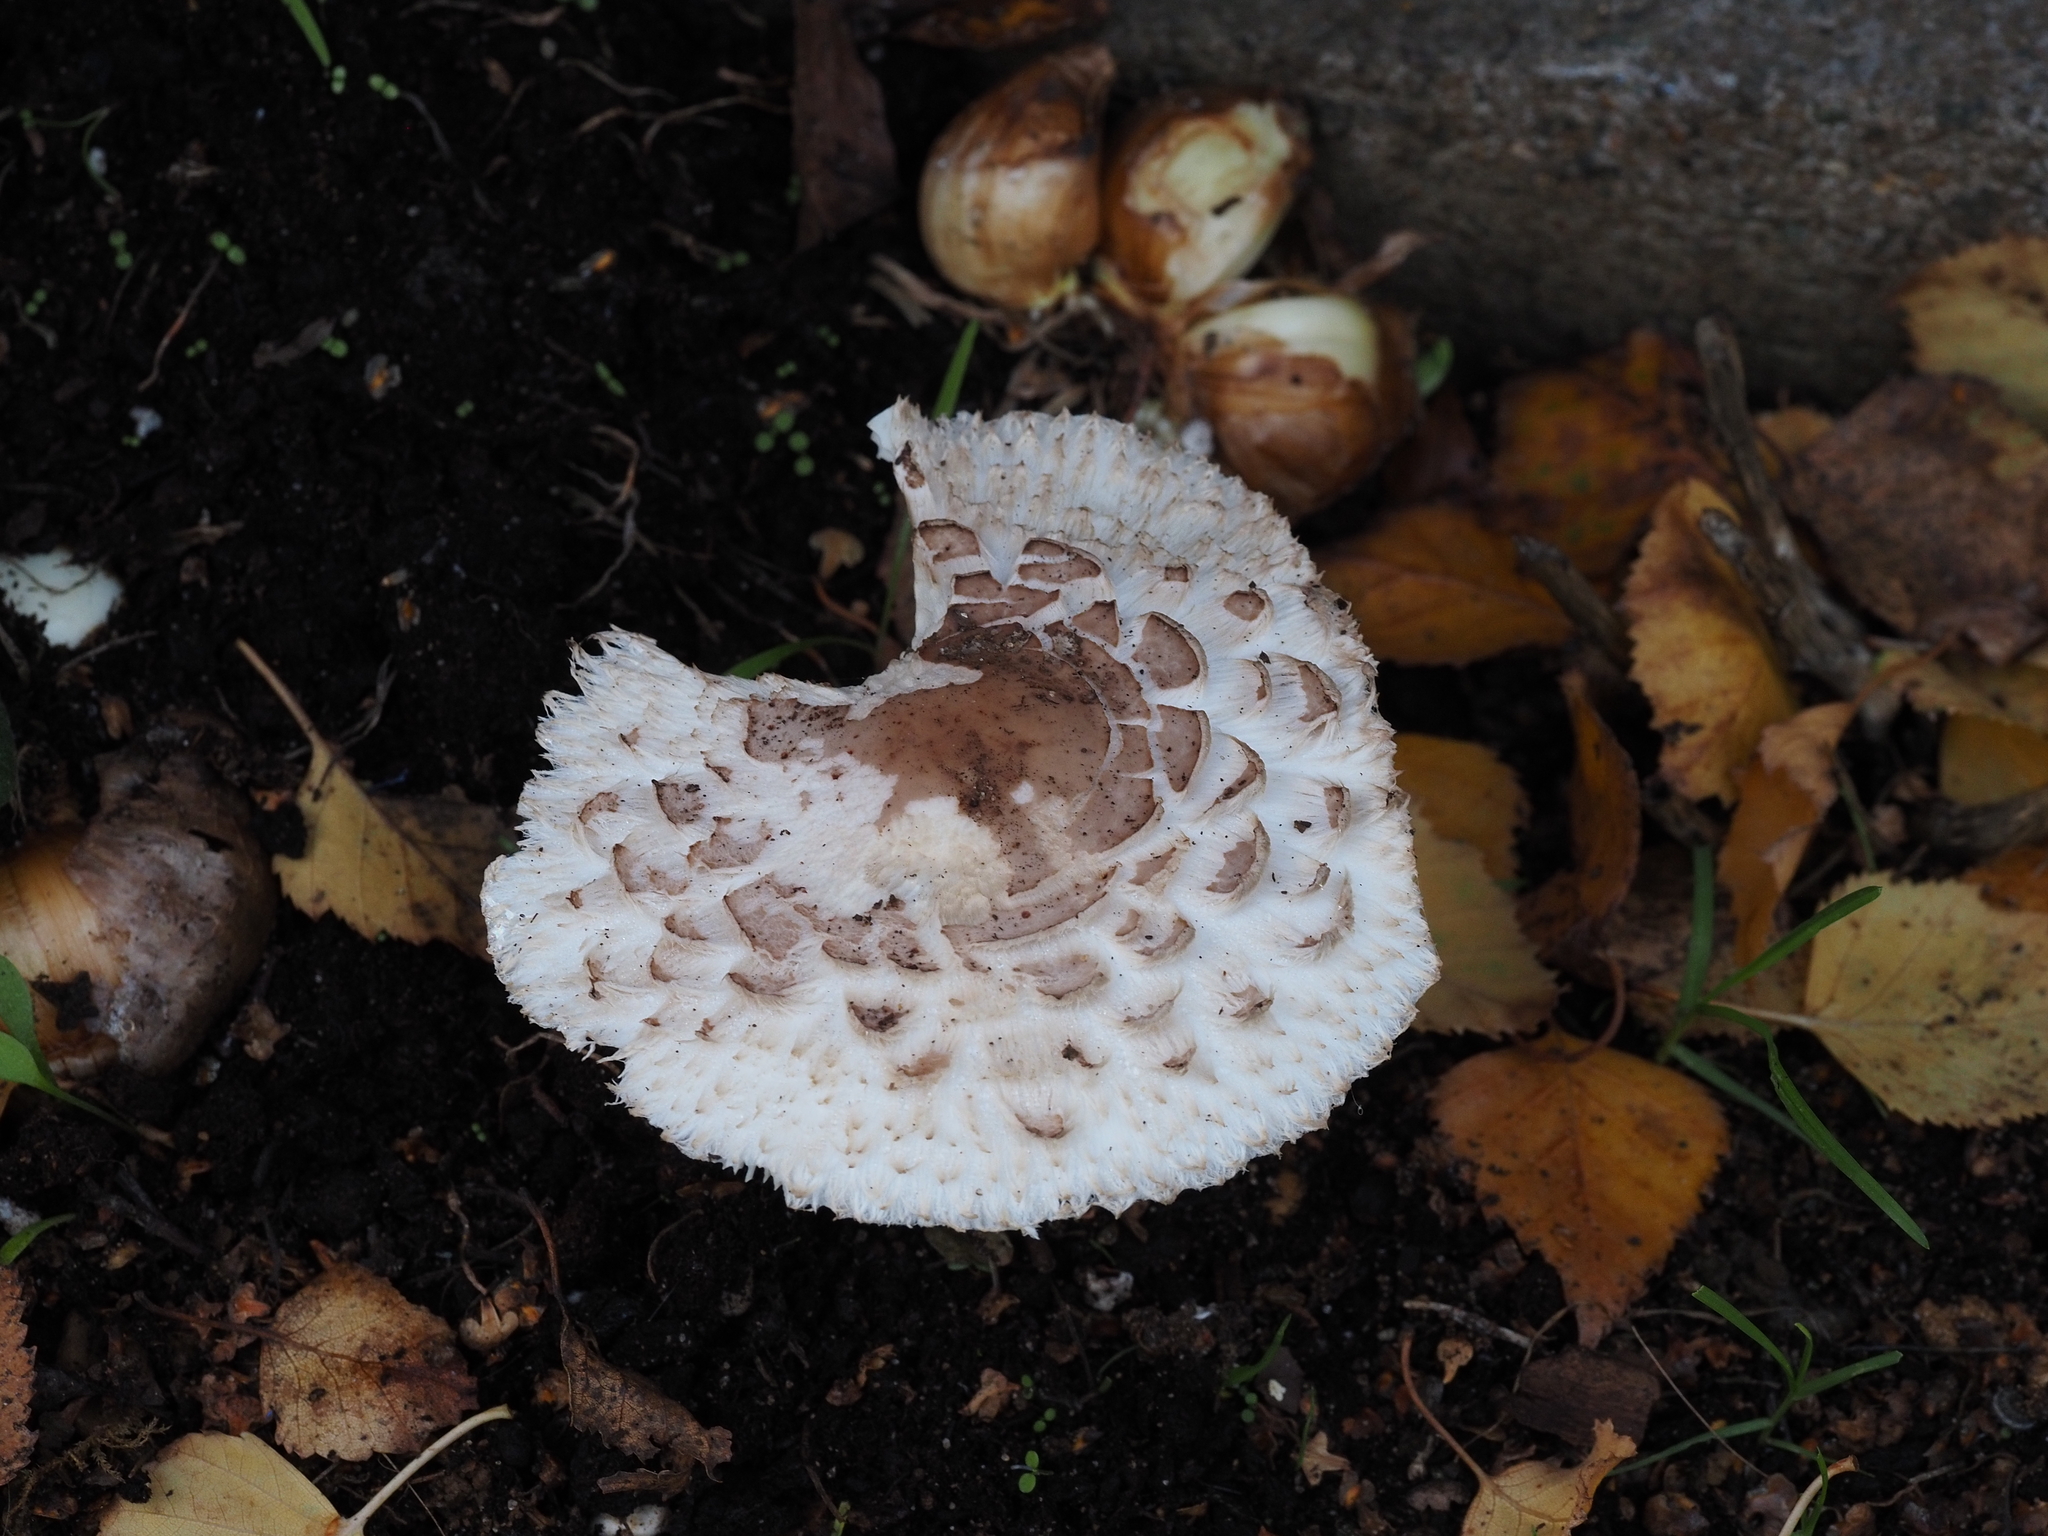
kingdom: Fungi
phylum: Basidiomycota
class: Agaricomycetes
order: Agaricales
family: Agaricaceae
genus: Chlorophyllum
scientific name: Chlorophyllum rhacodes
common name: Shaggy parasol
